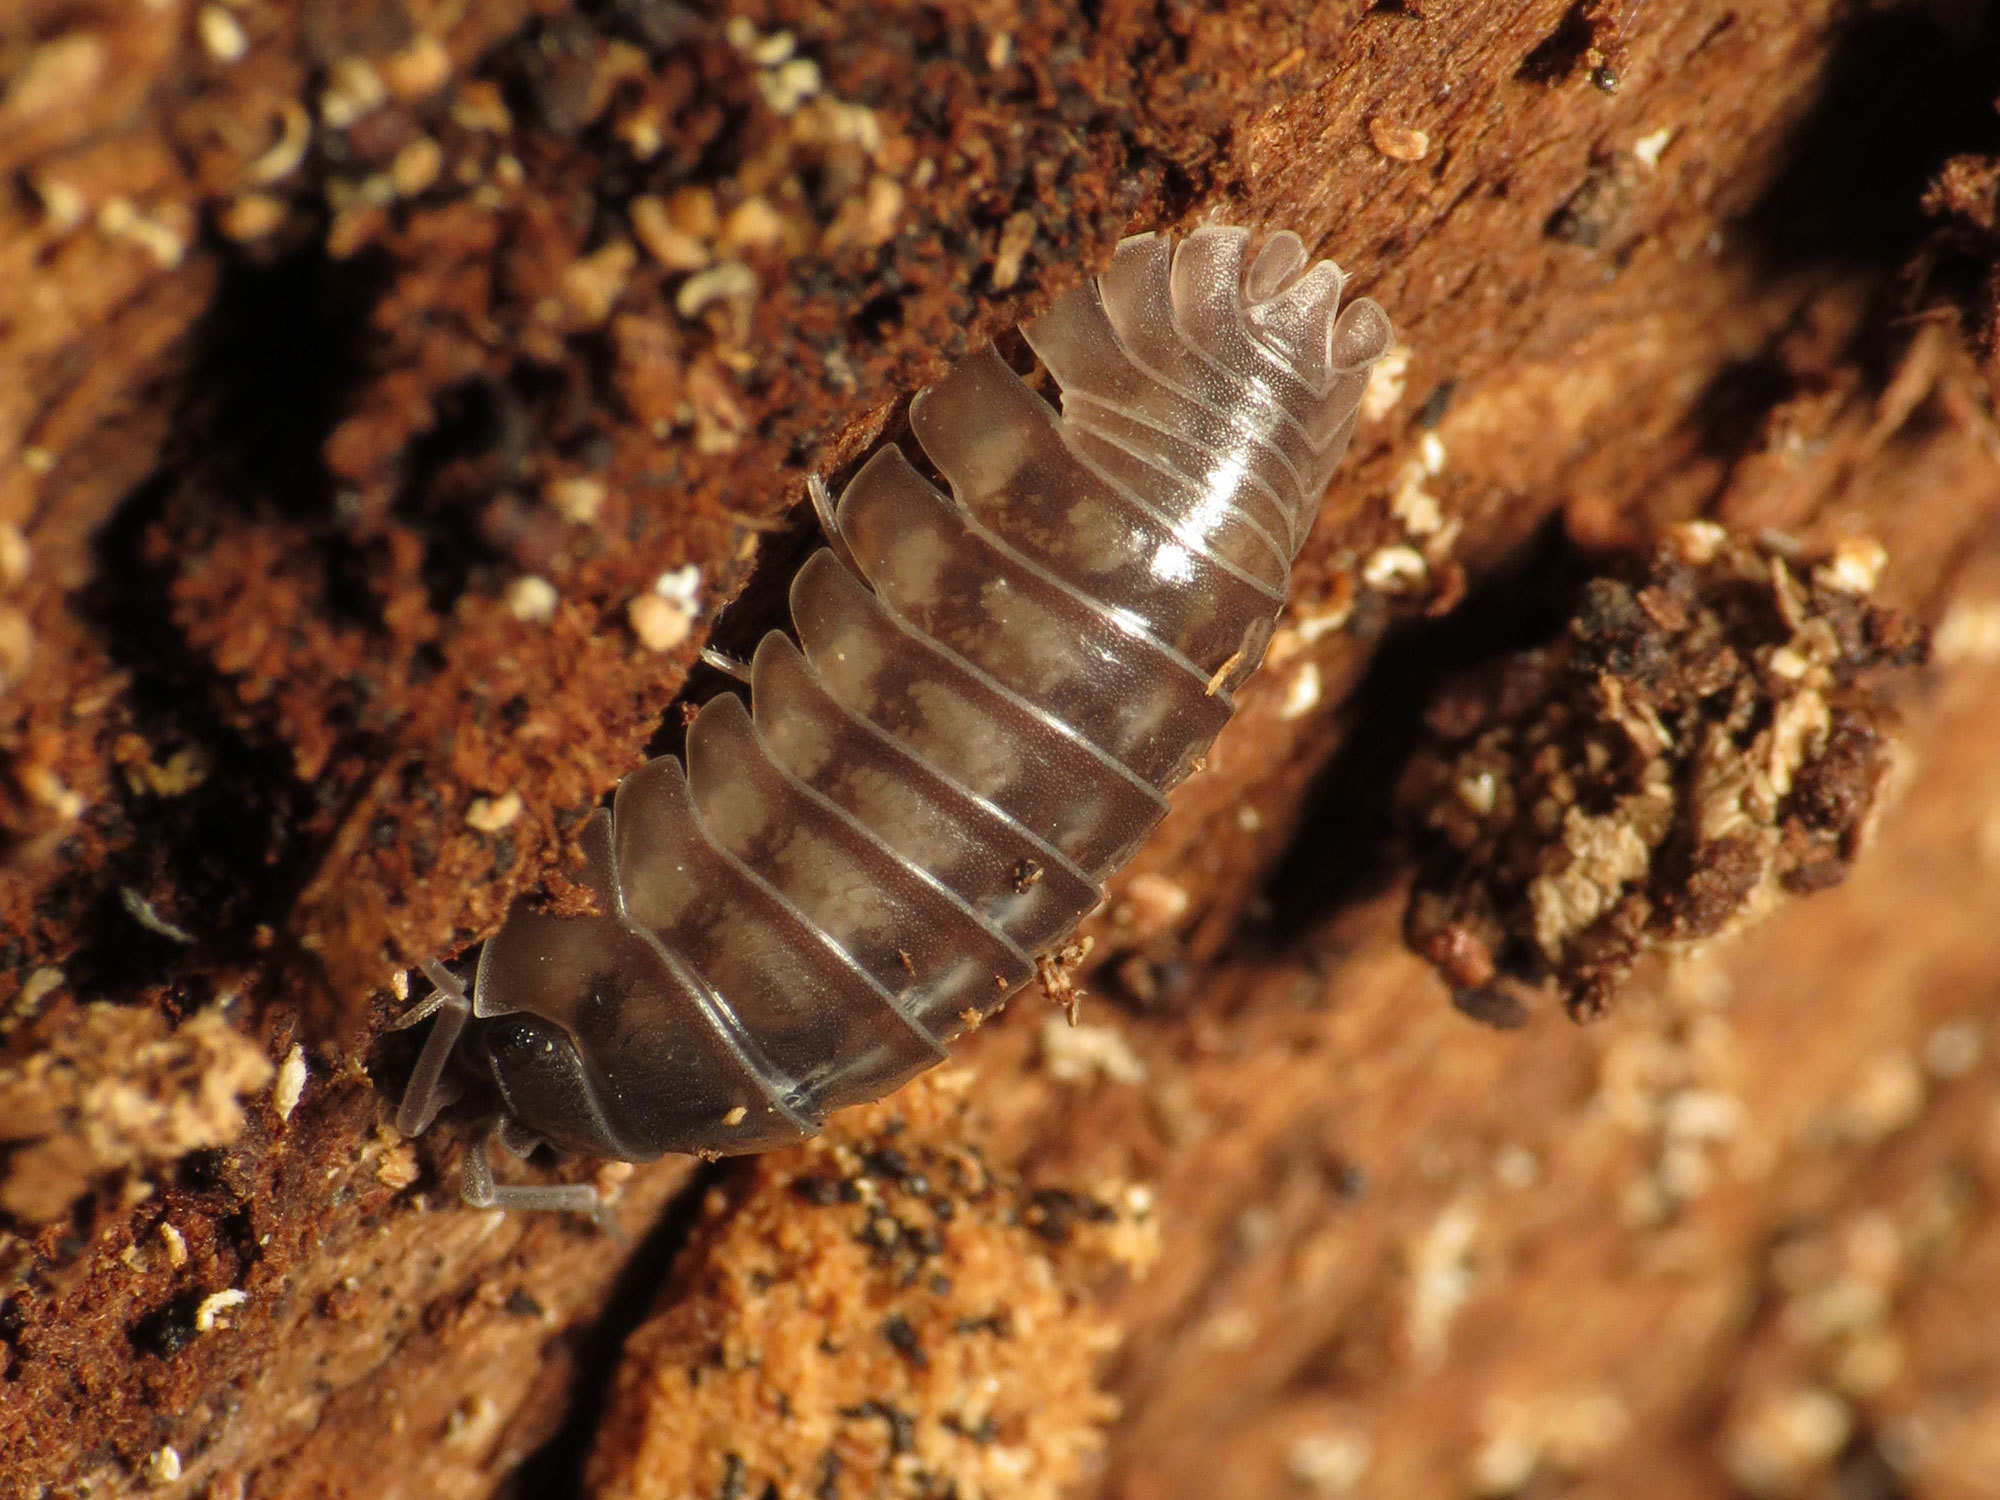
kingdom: Animalia
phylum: Arthropoda
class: Malacostraca
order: Isopoda
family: Armadillidiidae
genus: Armadillidium
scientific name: Armadillidium nasatum
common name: Isopod
